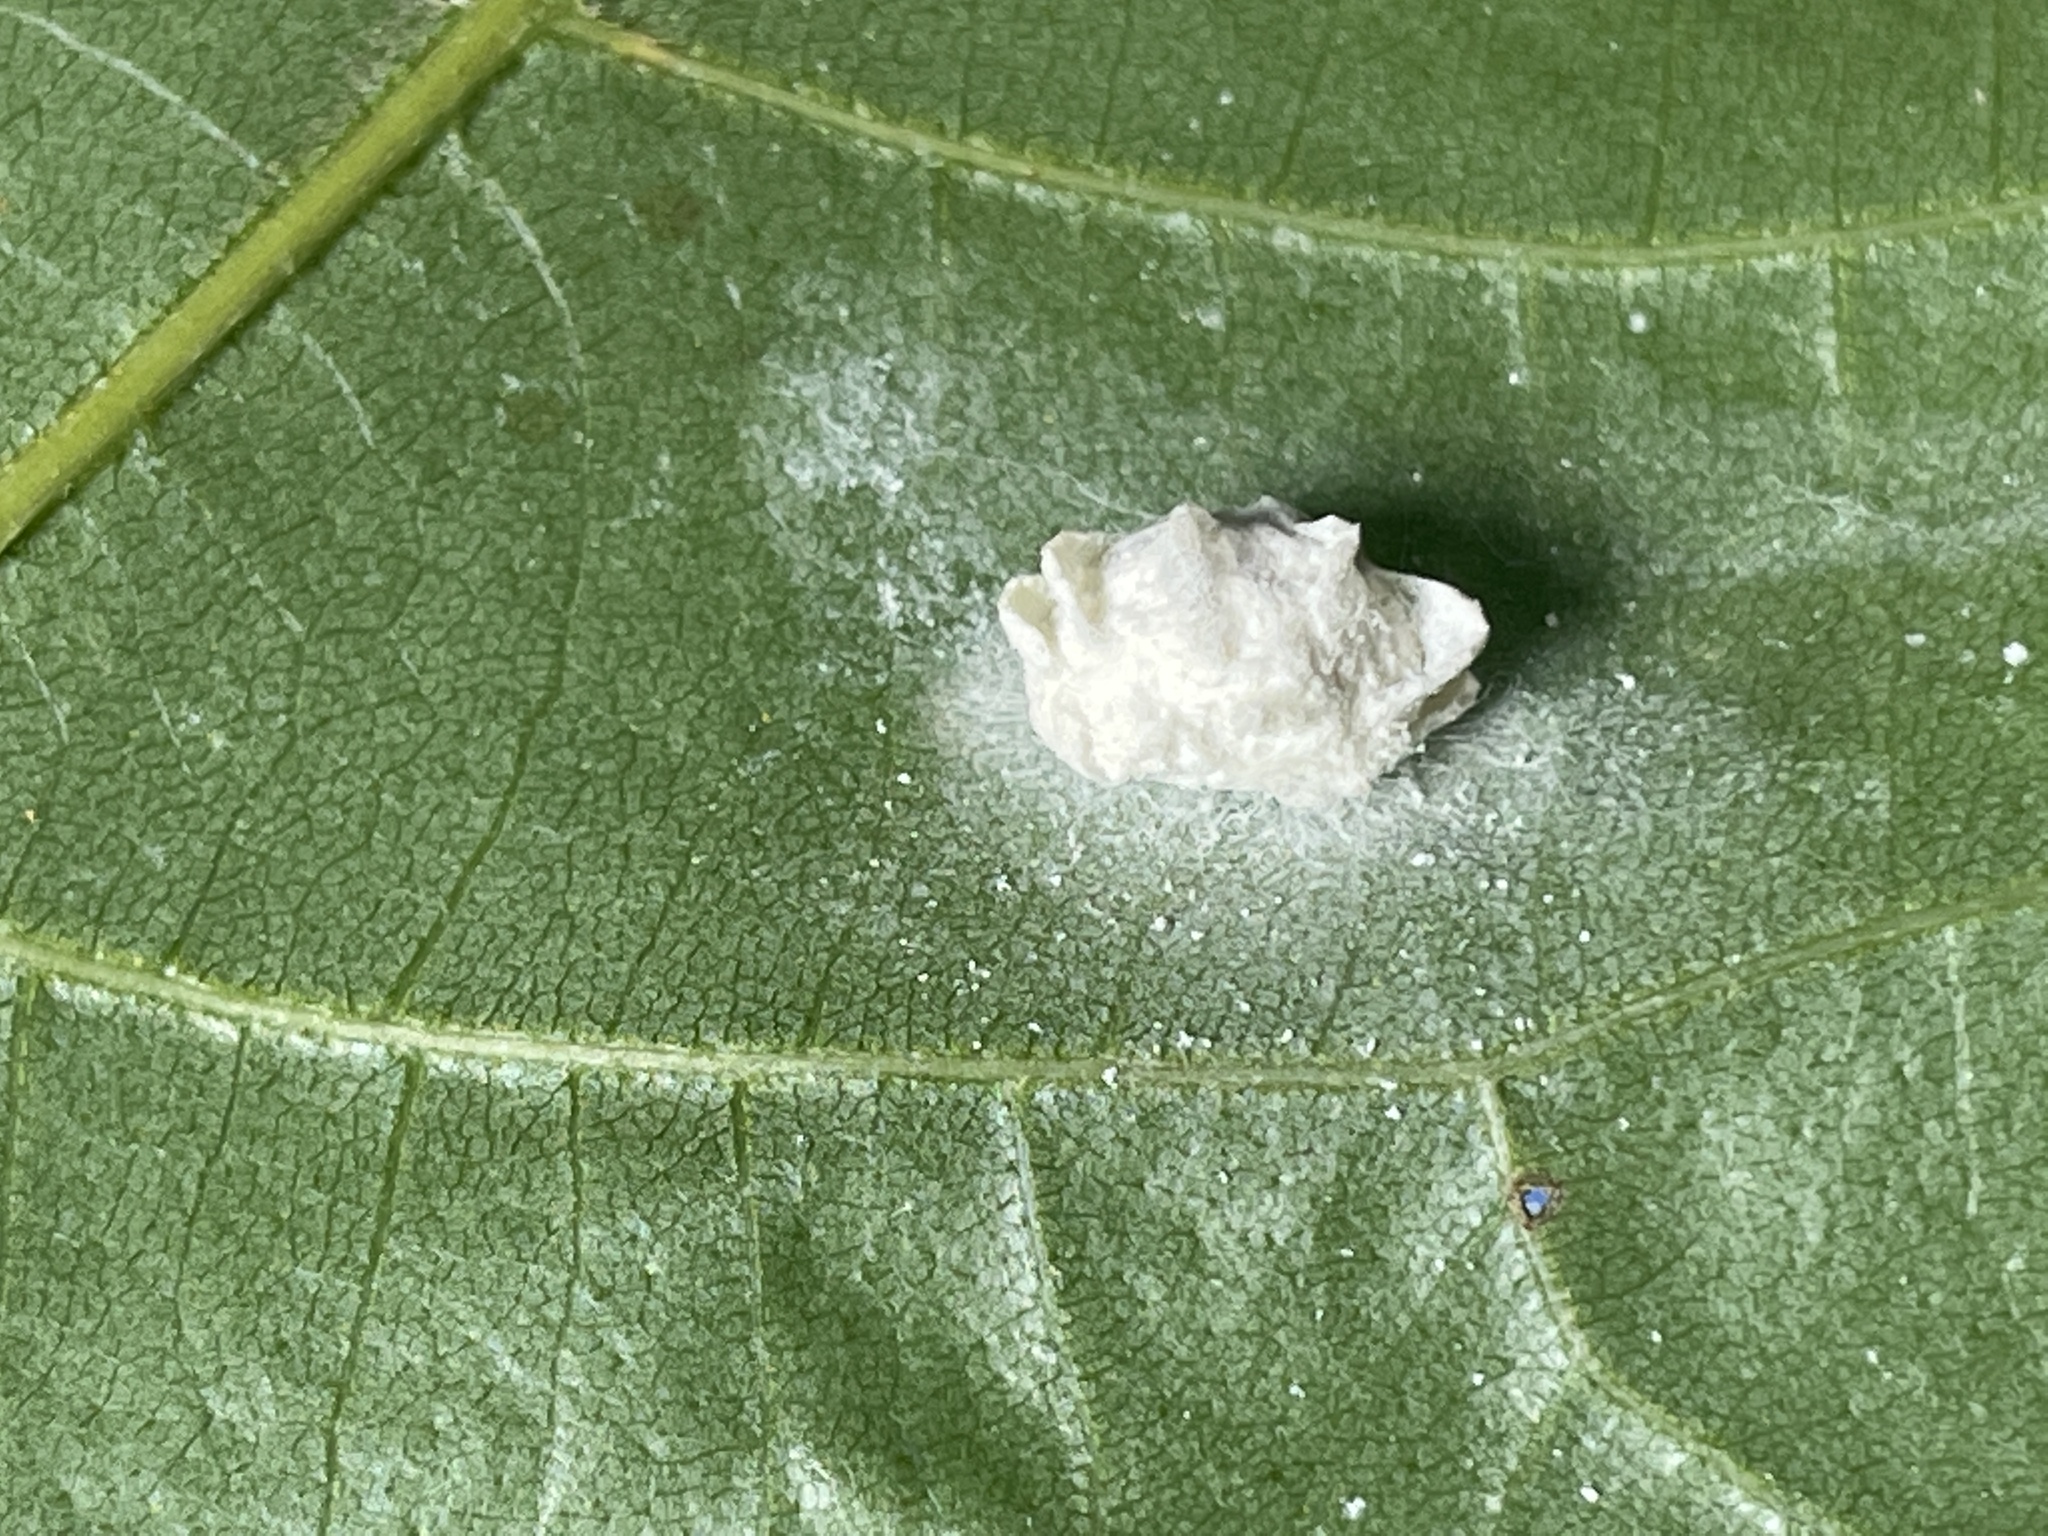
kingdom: Animalia
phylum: Arthropoda
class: Insecta
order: Lepidoptera
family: Epipyropidae
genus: Fulgoraecia
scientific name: Fulgoraecia exigua
